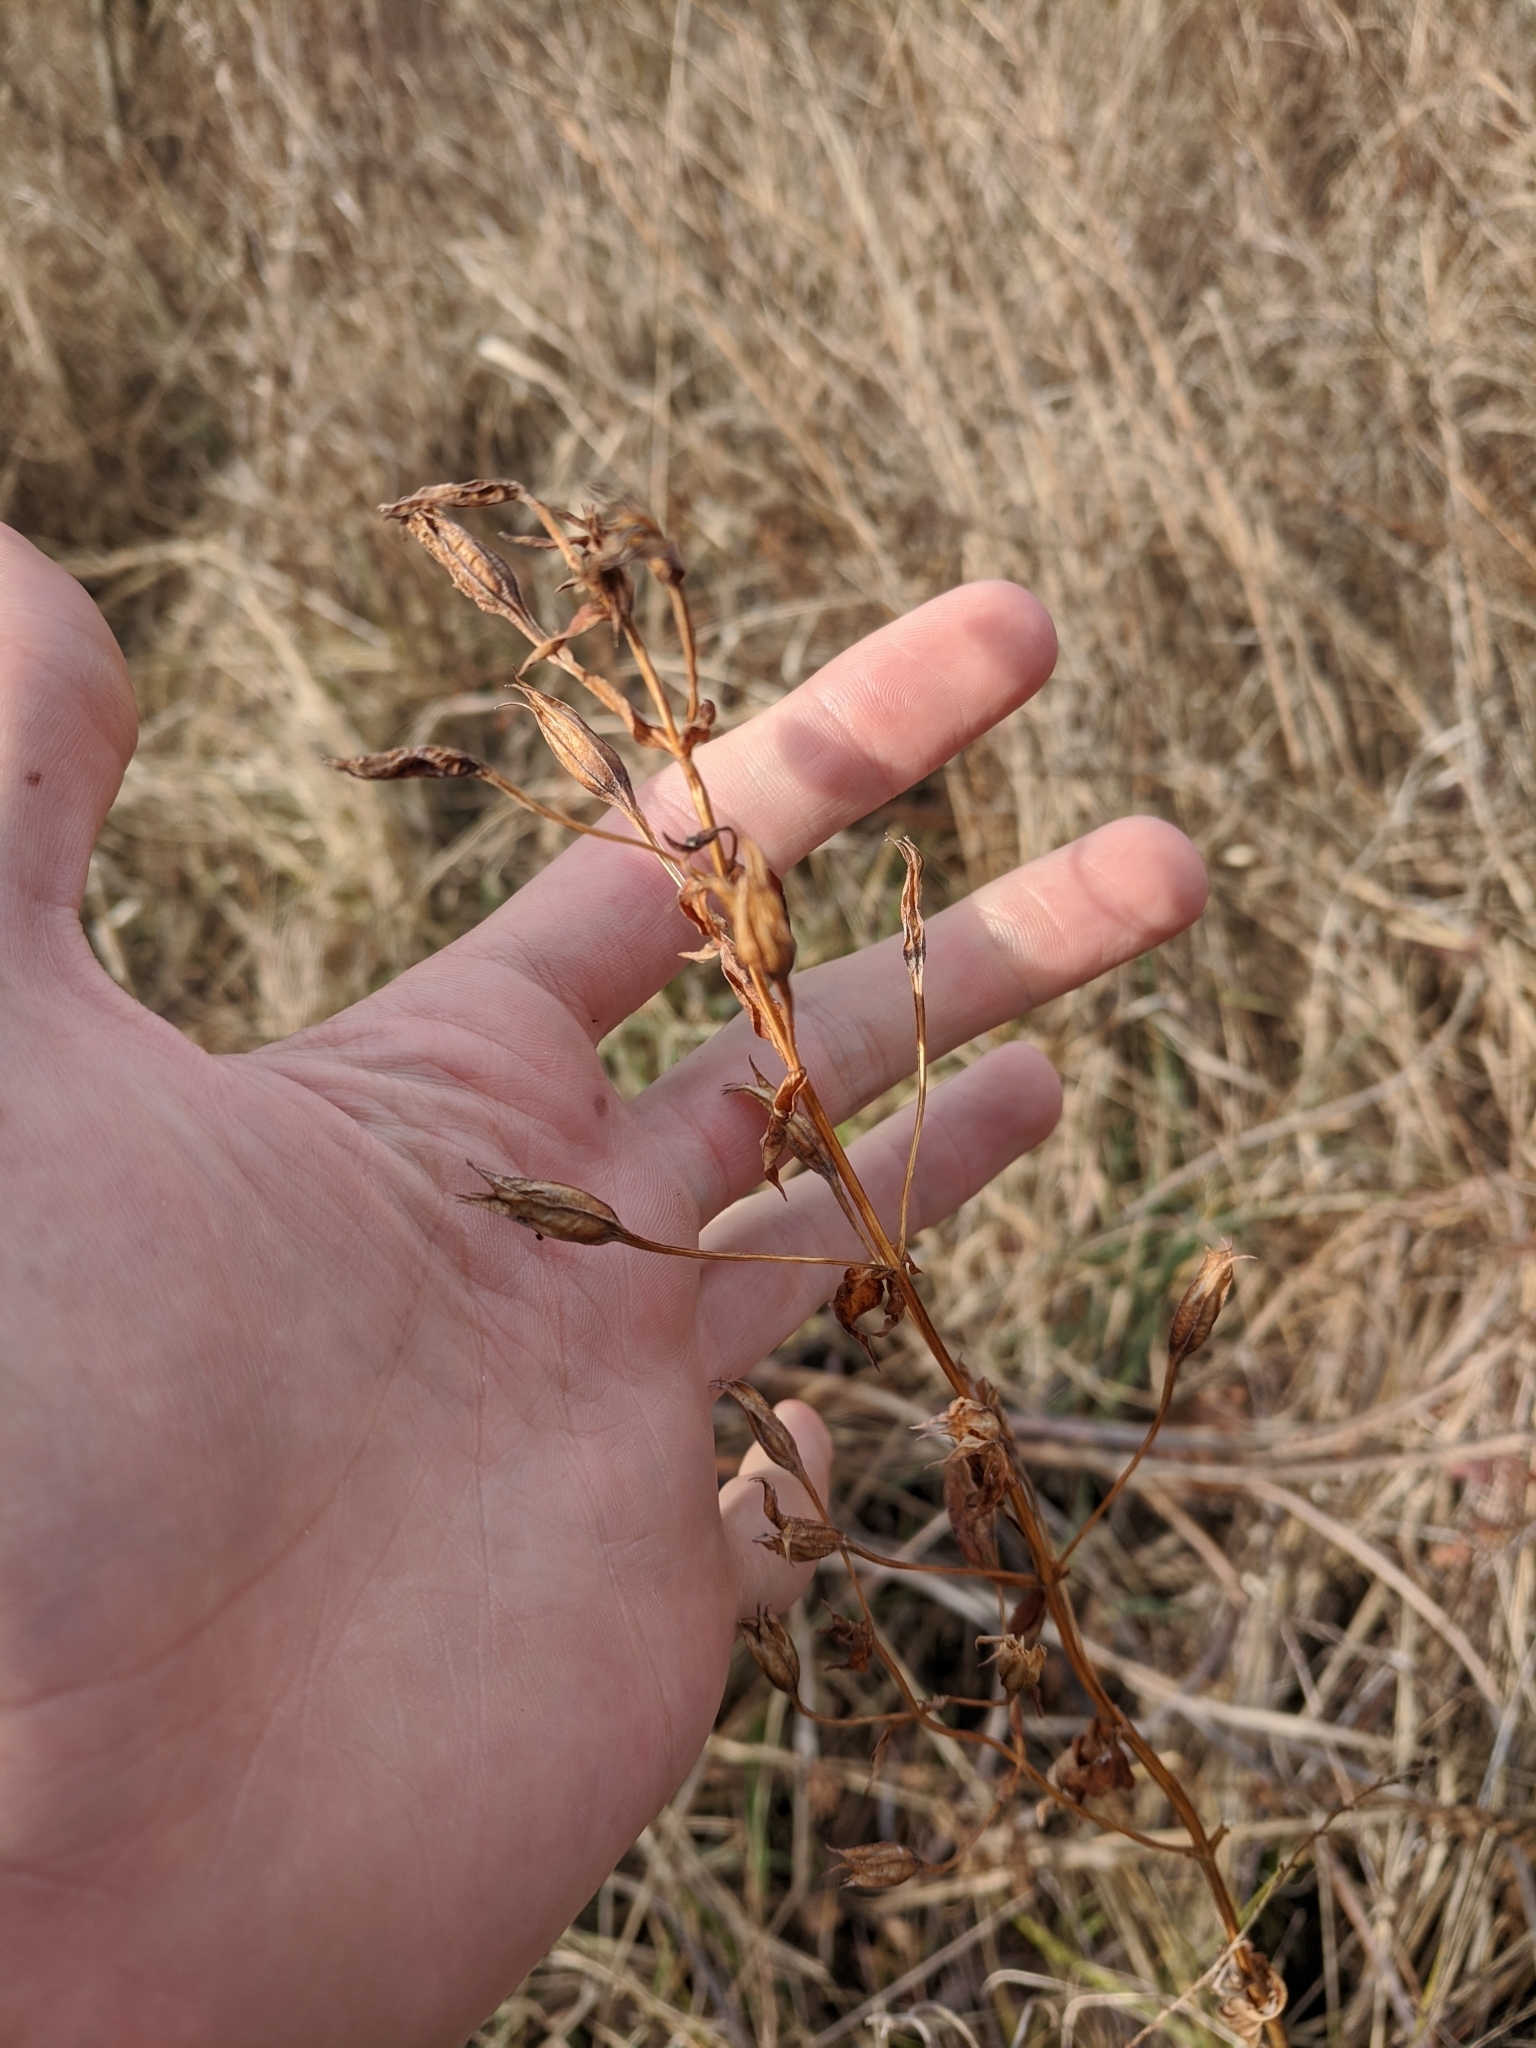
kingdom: Plantae
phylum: Tracheophyta
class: Magnoliopsida
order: Lamiales
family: Phrymaceae
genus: Mimulus
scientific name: Mimulus ringens
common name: Allegheny monkeyflower
